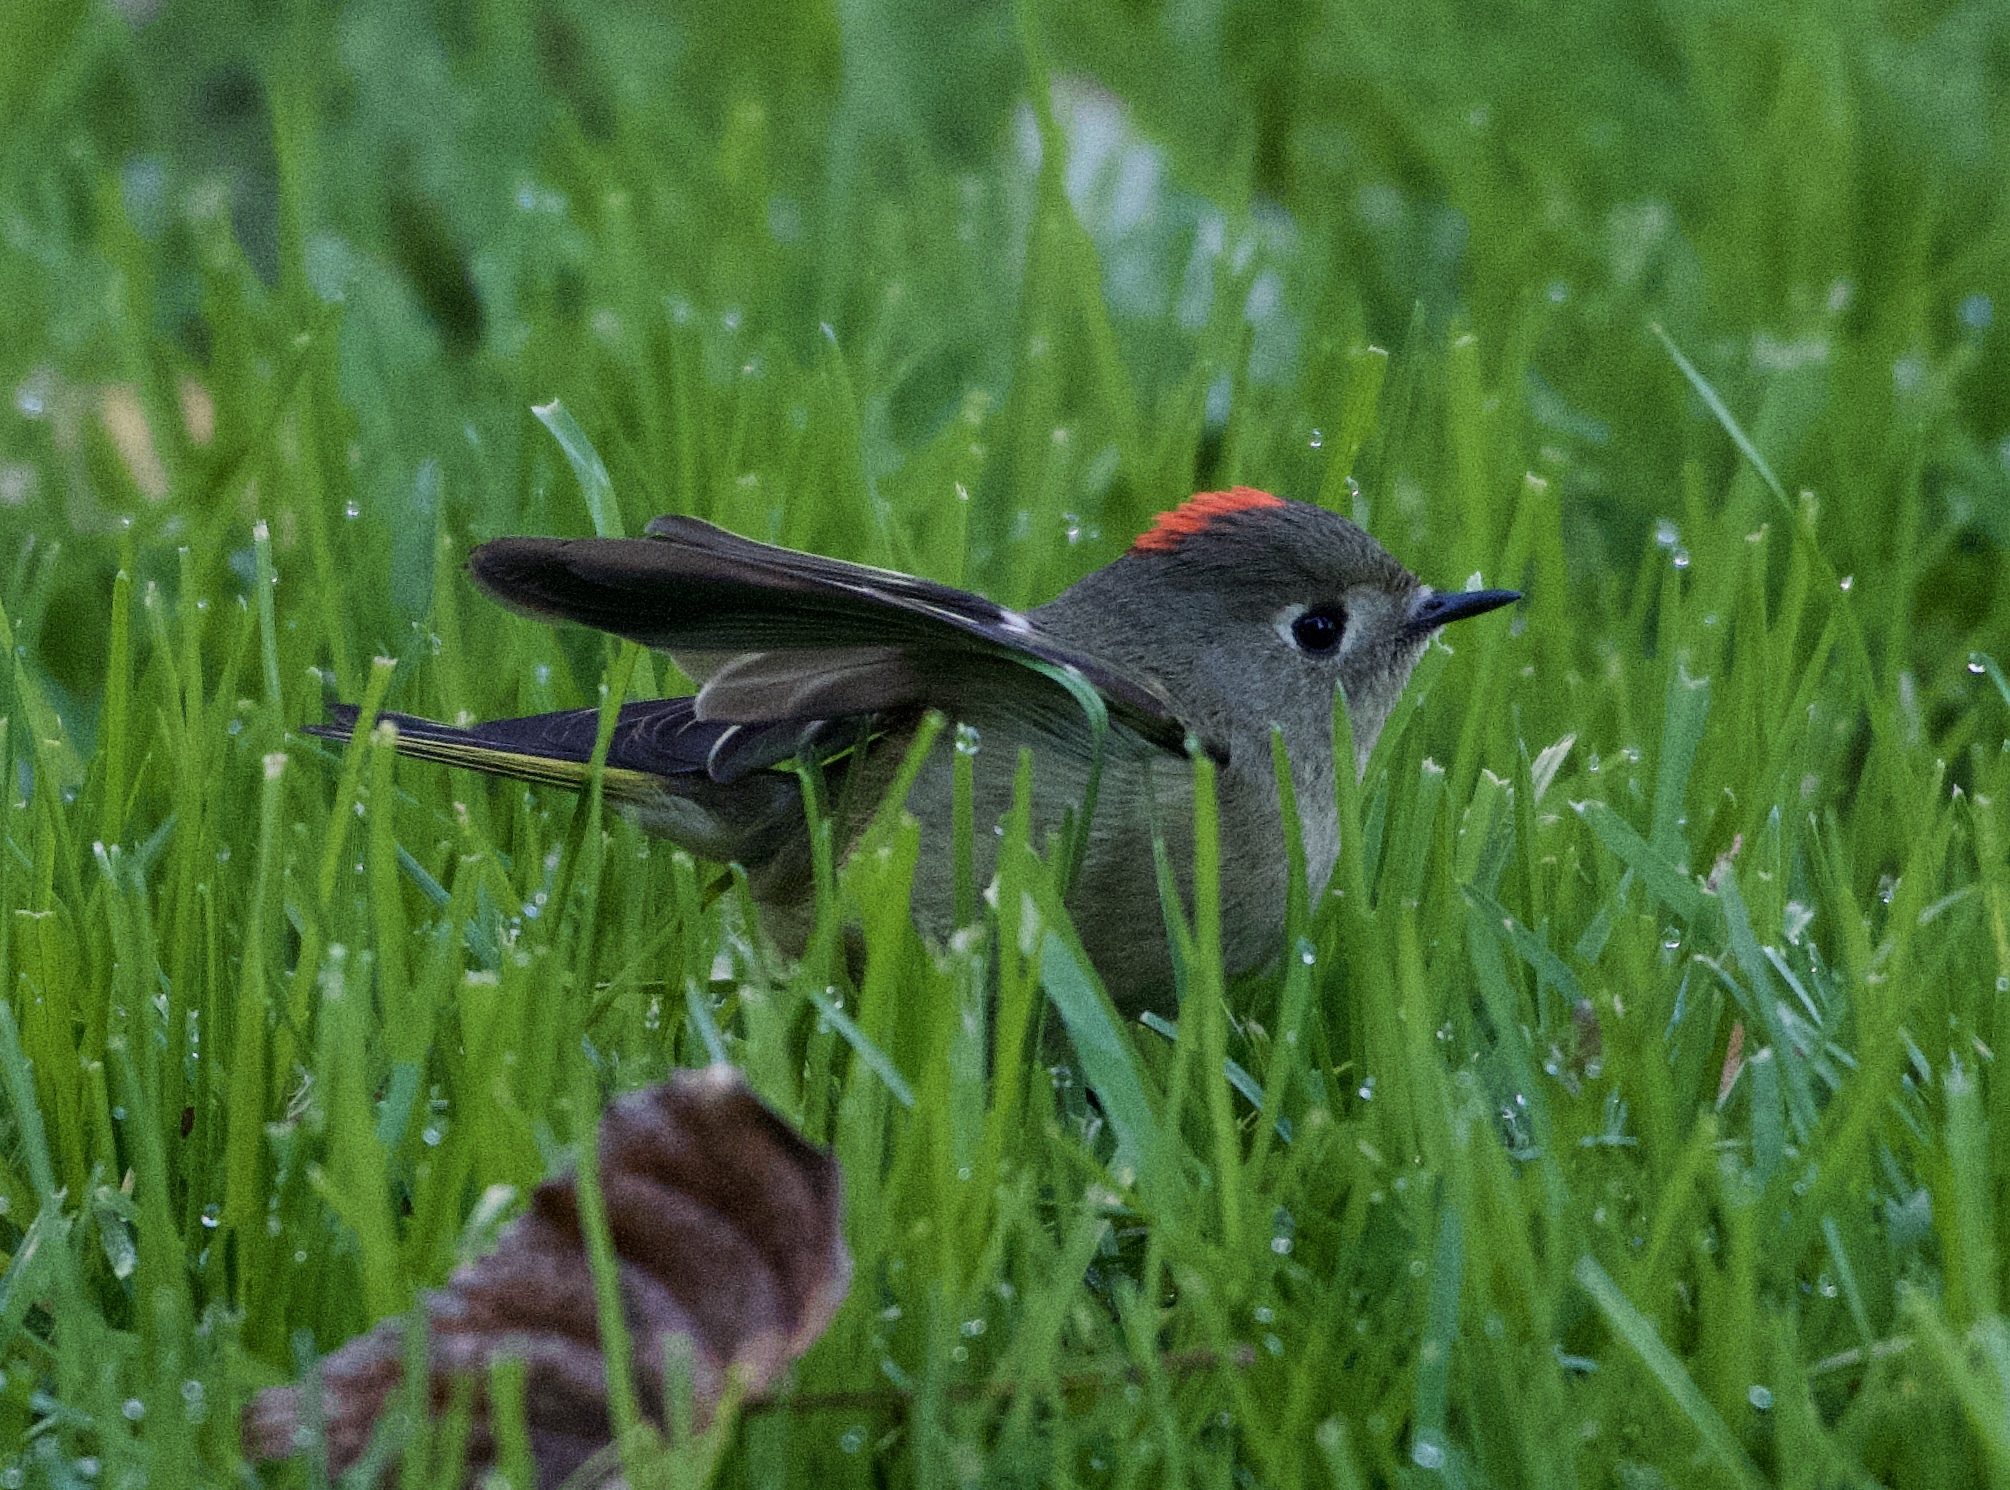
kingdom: Animalia
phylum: Chordata
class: Aves
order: Passeriformes
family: Regulidae
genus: Regulus
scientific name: Regulus calendula
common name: Ruby-crowned kinglet
